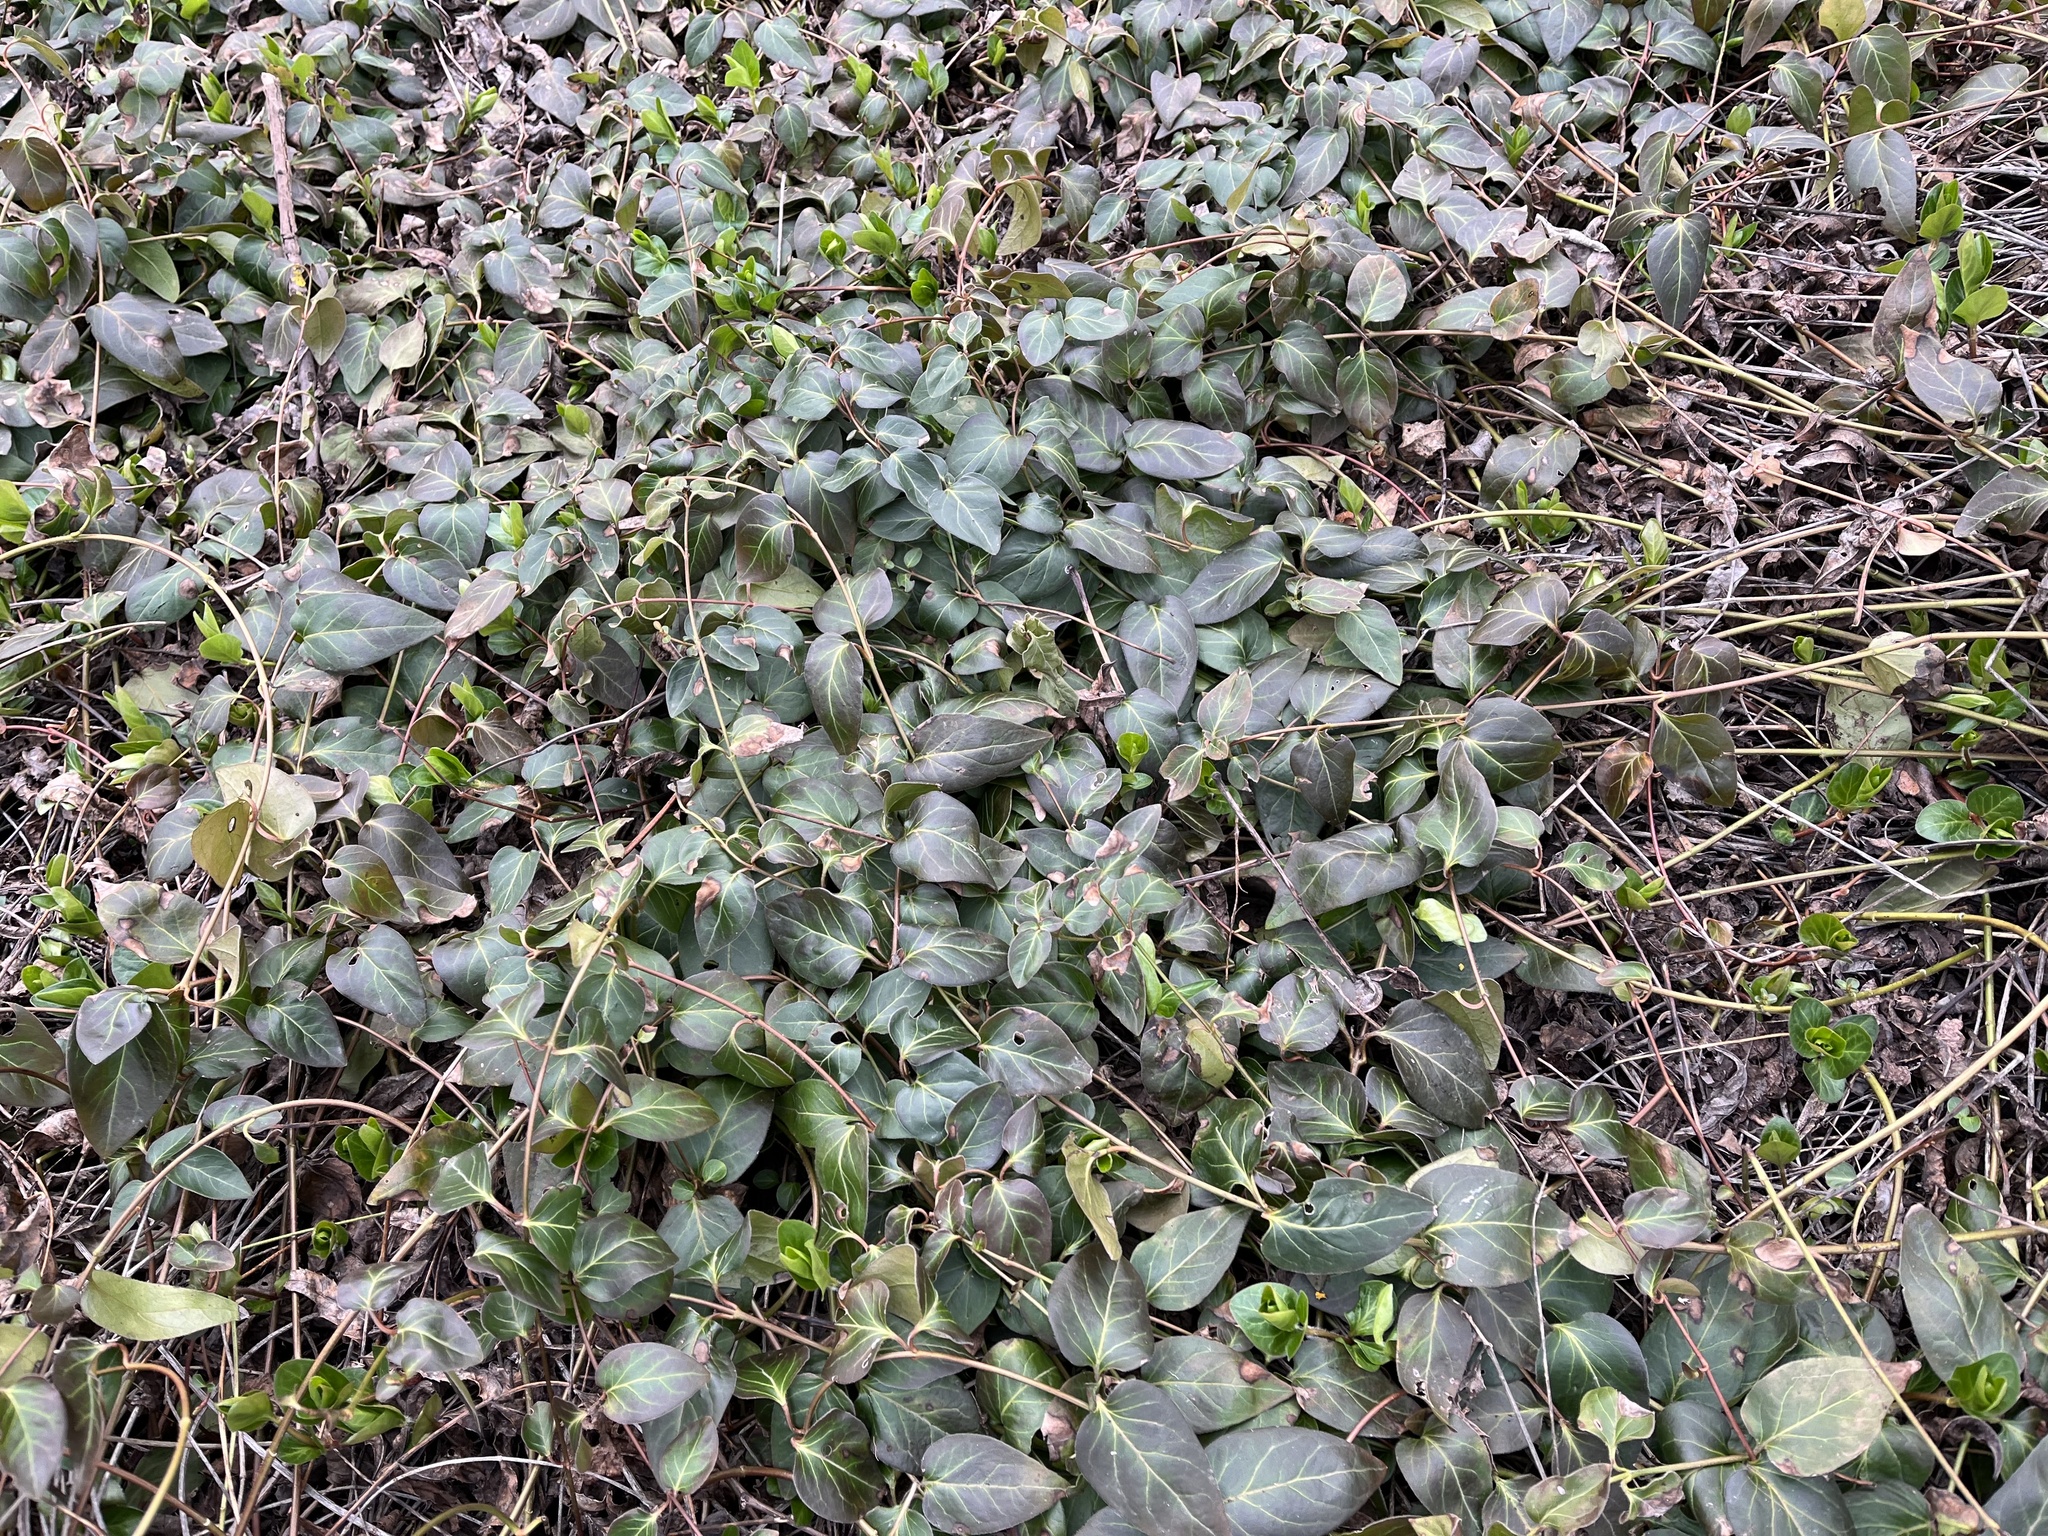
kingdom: Plantae
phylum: Tracheophyta
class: Magnoliopsida
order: Gentianales
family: Apocynaceae
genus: Vinca
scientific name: Vinca major
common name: Greater periwinkle
